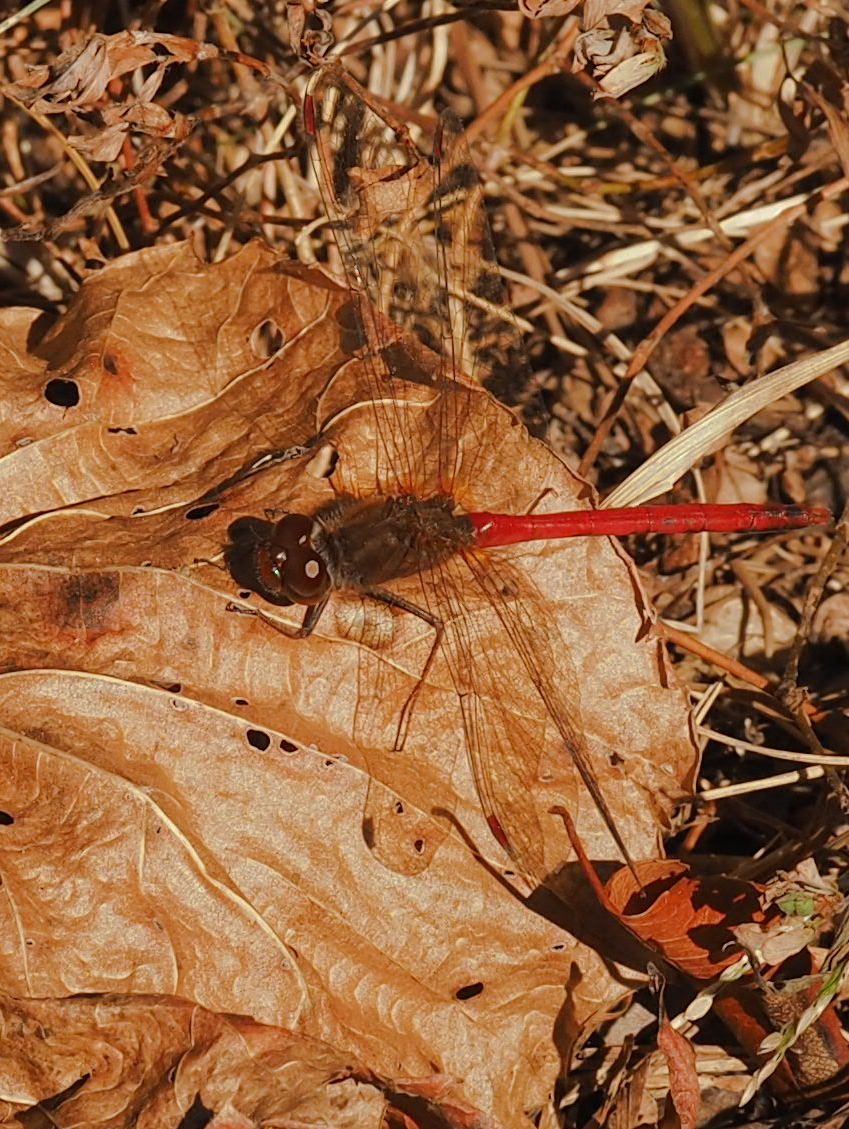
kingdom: Animalia
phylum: Arthropoda
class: Insecta
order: Odonata
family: Libellulidae
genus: Sympetrum
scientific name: Sympetrum vicinum
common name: Autumn meadowhawk
